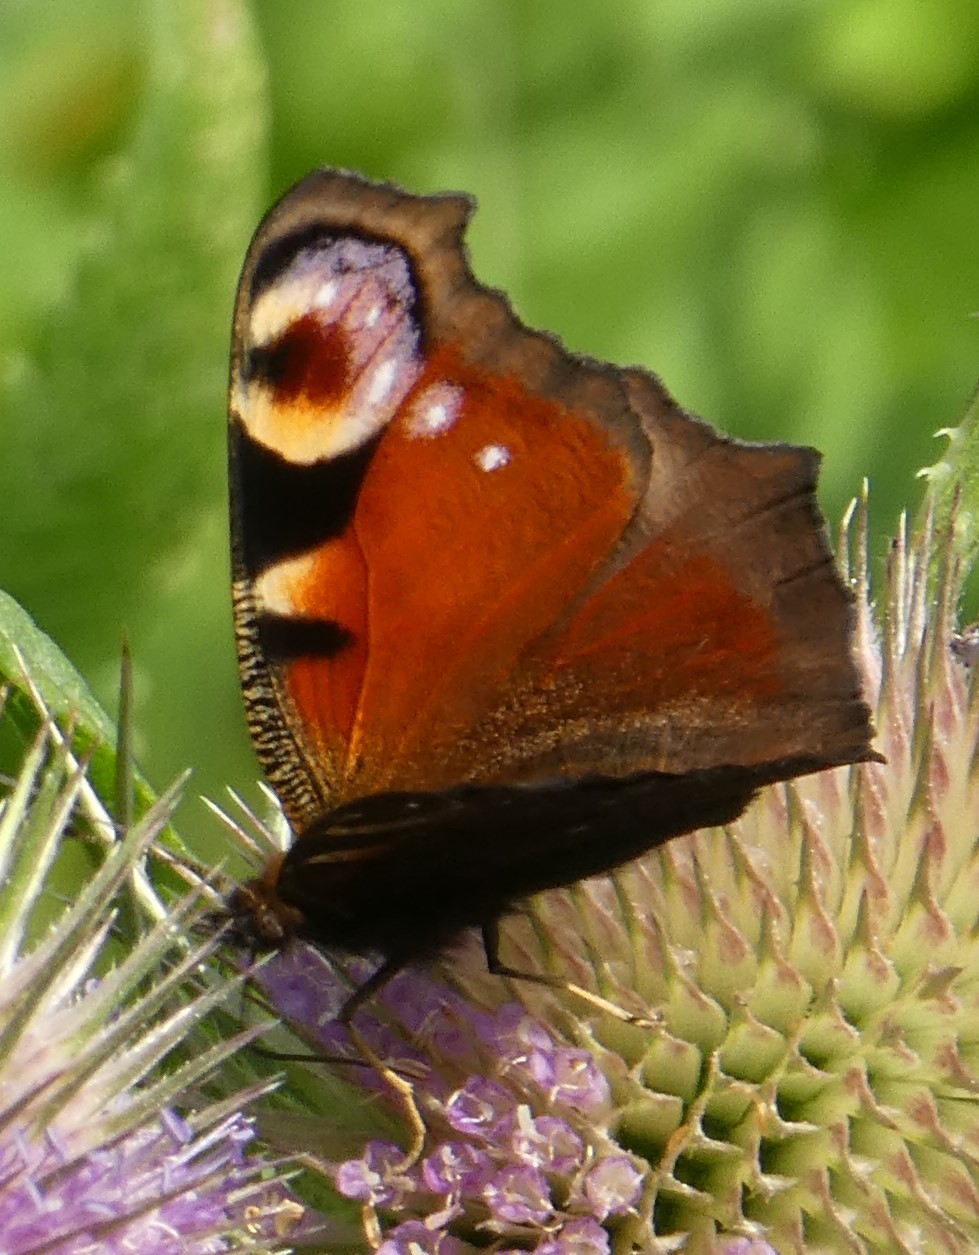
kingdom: Animalia
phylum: Arthropoda
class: Insecta
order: Lepidoptera
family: Nymphalidae
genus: Aglais
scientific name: Aglais io
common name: Peacock
